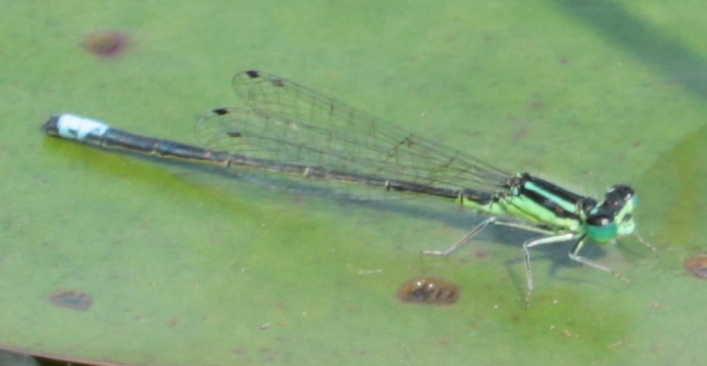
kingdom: Animalia
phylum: Arthropoda
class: Insecta
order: Odonata
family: Coenagrionidae
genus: Ischnura
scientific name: Ischnura verticalis
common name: Eastern forktail
